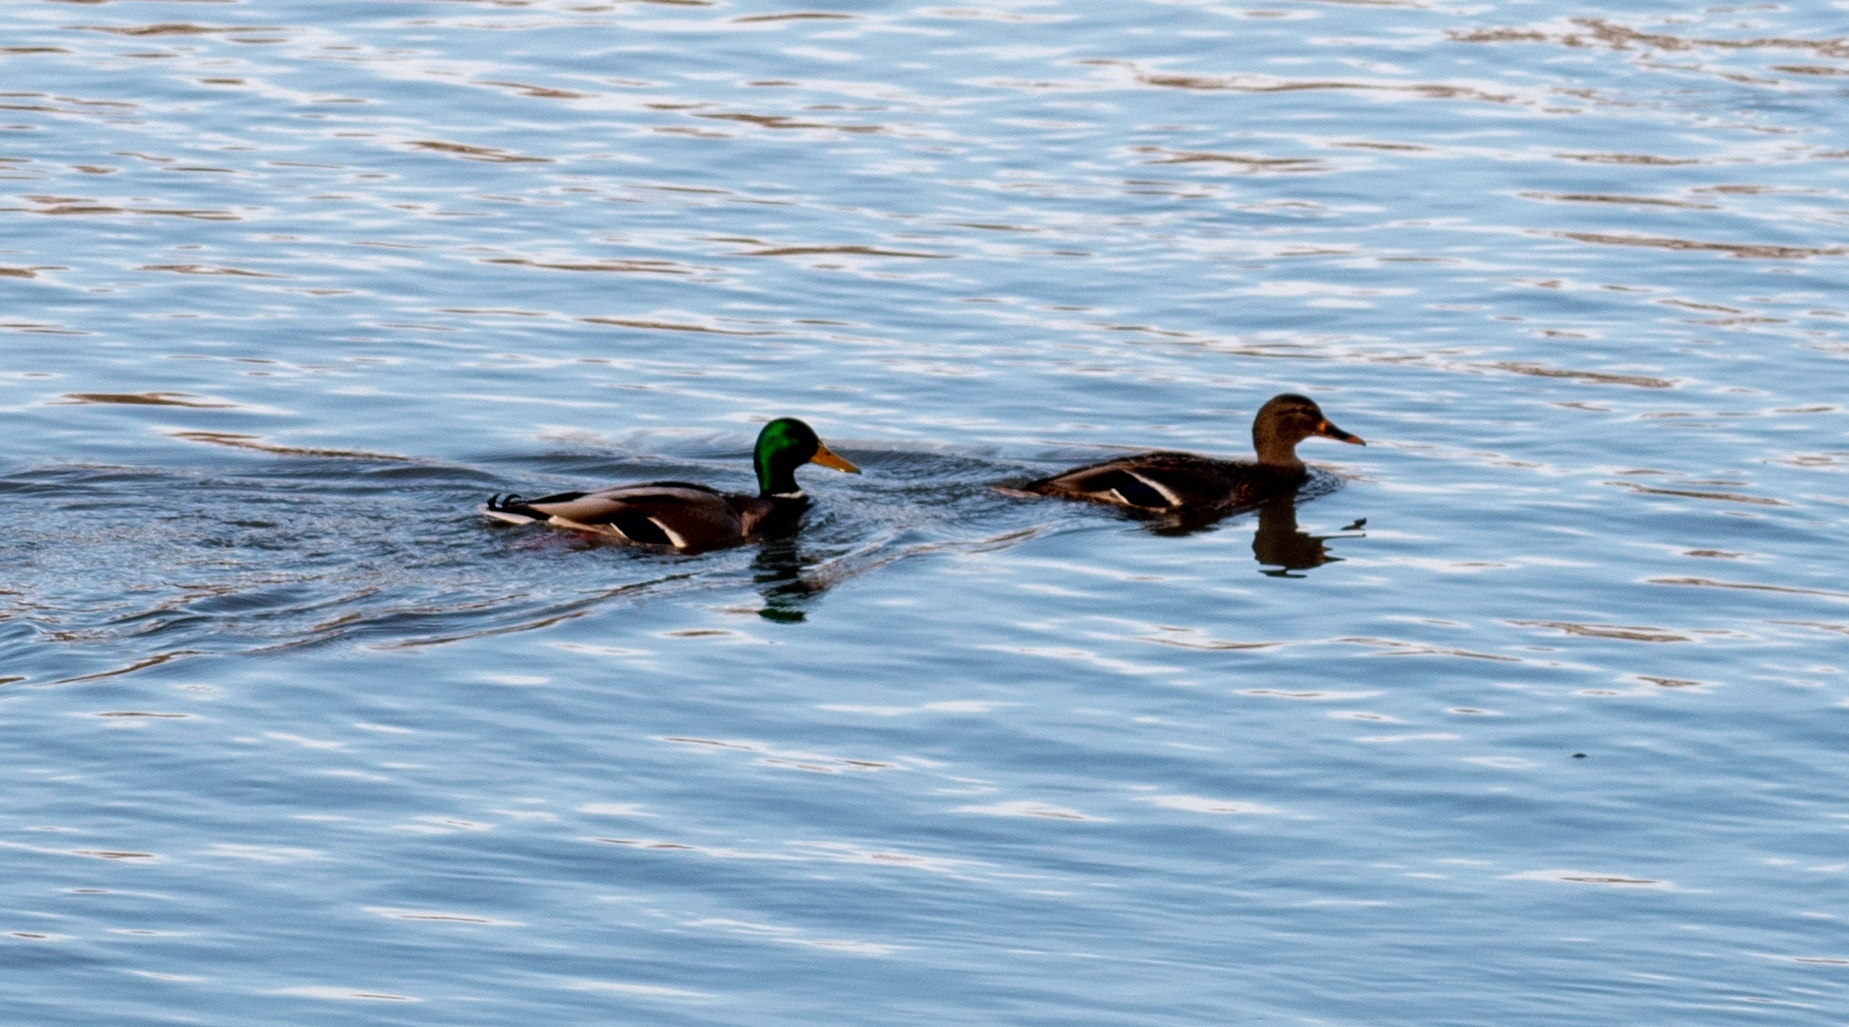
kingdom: Animalia
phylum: Chordata
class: Aves
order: Anseriformes
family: Anatidae
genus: Anas
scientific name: Anas platyrhynchos
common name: Mallard
